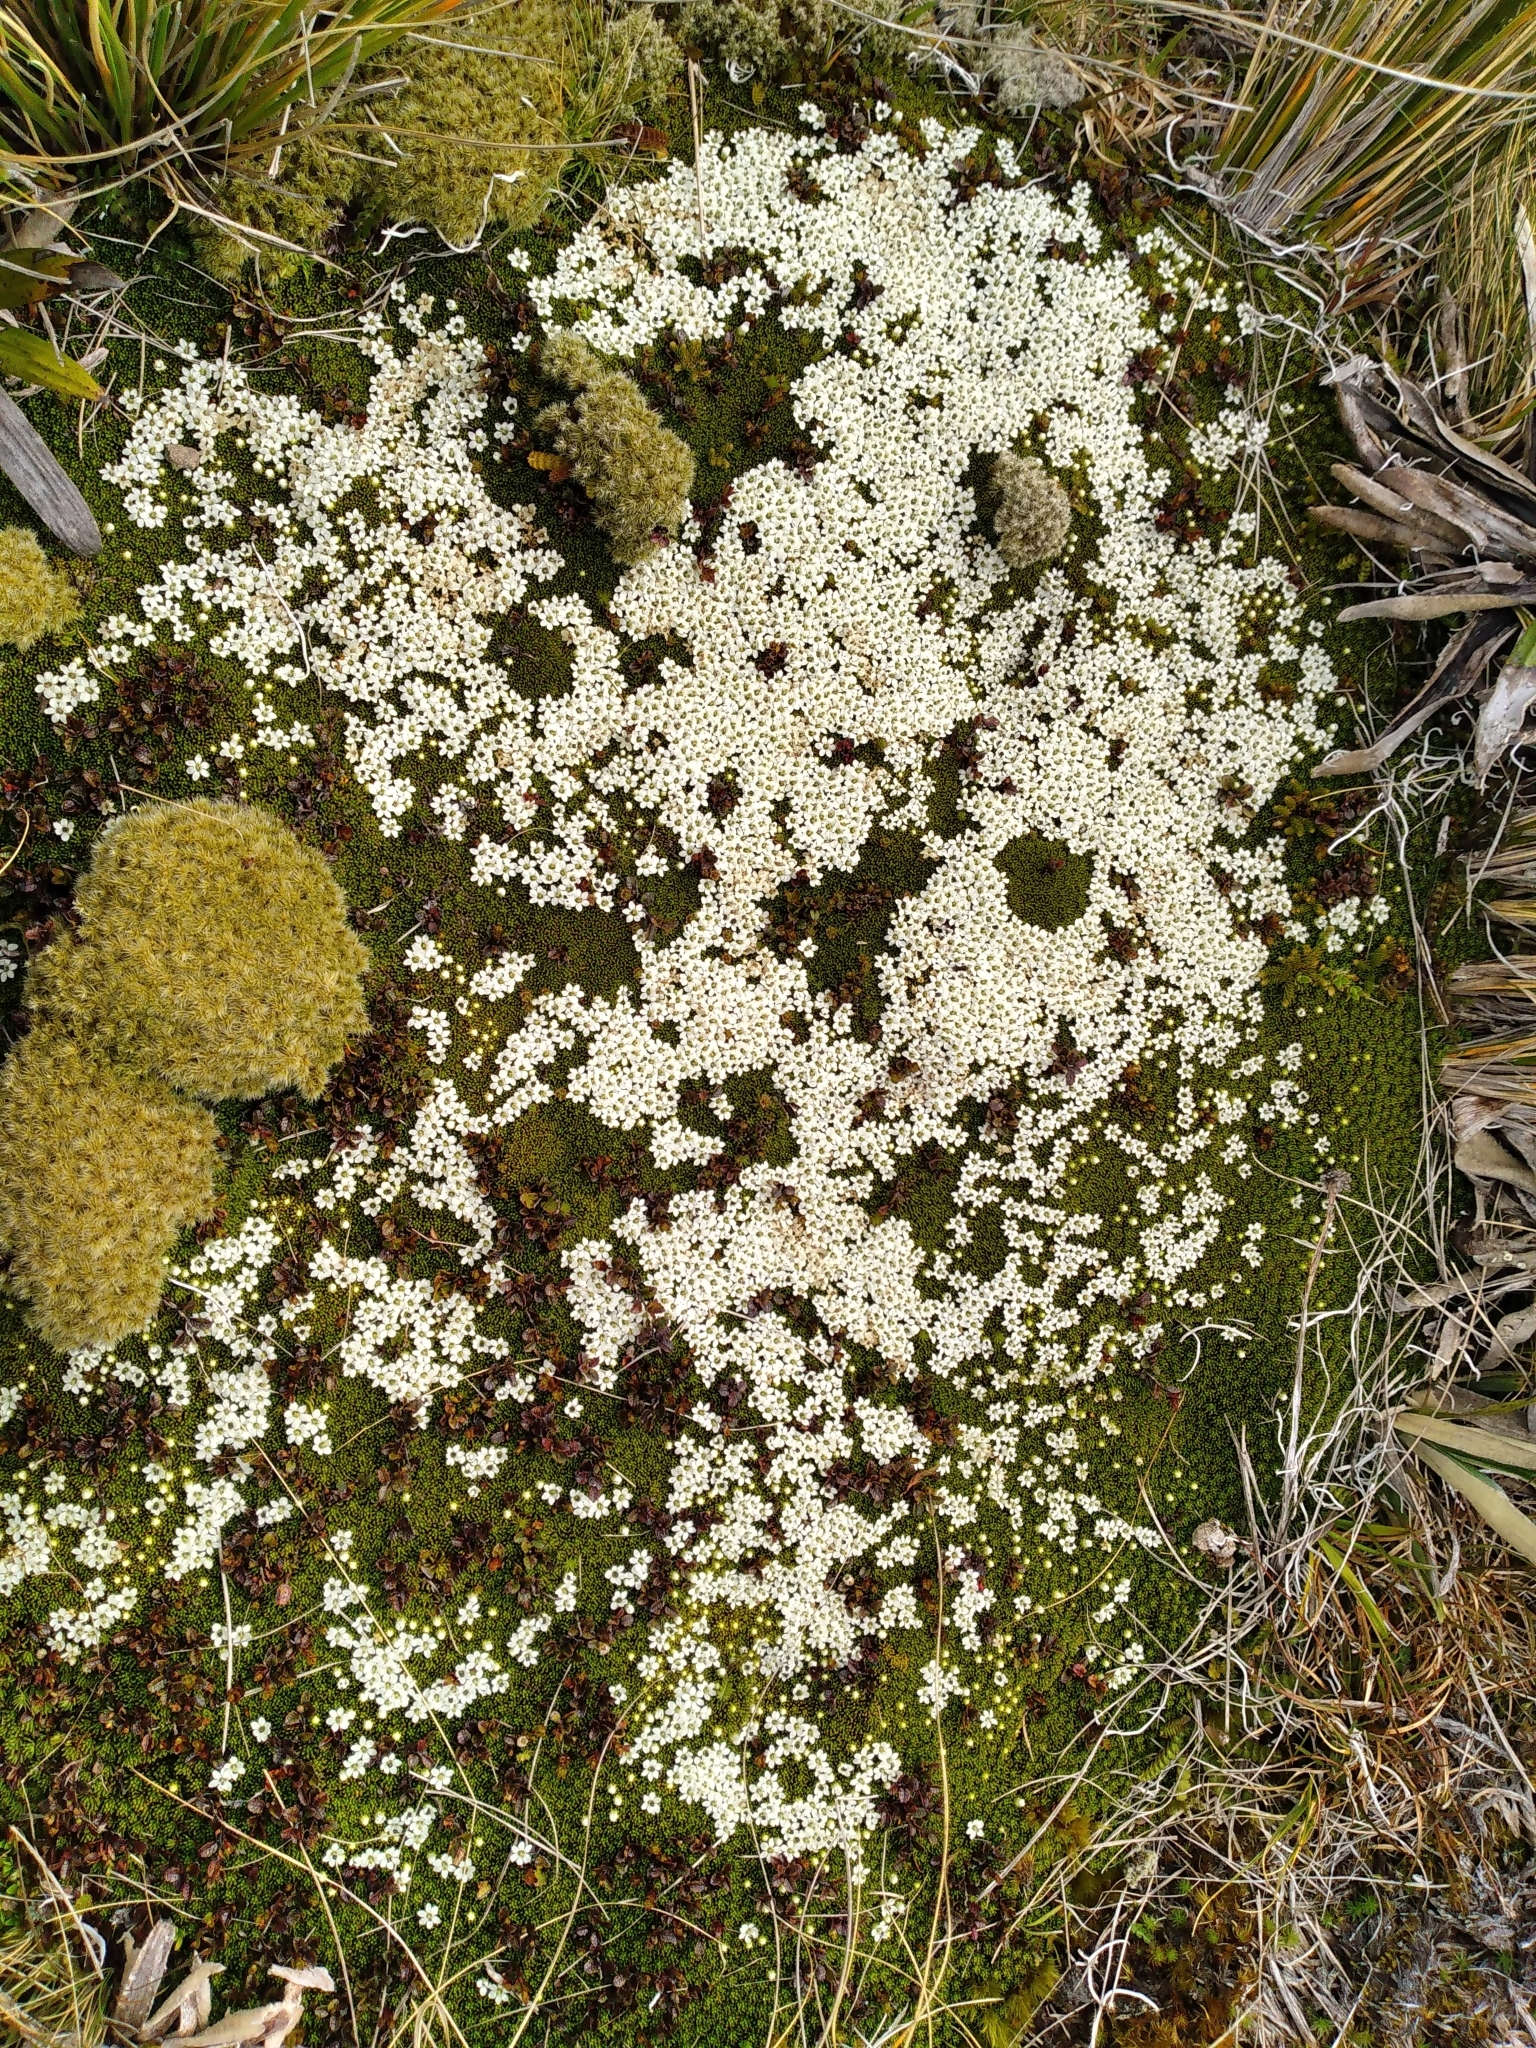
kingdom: Plantae
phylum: Tracheophyta
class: Magnoliopsida
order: Asterales
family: Stylidiaceae
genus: Phyllachne
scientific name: Phyllachne colensoi
